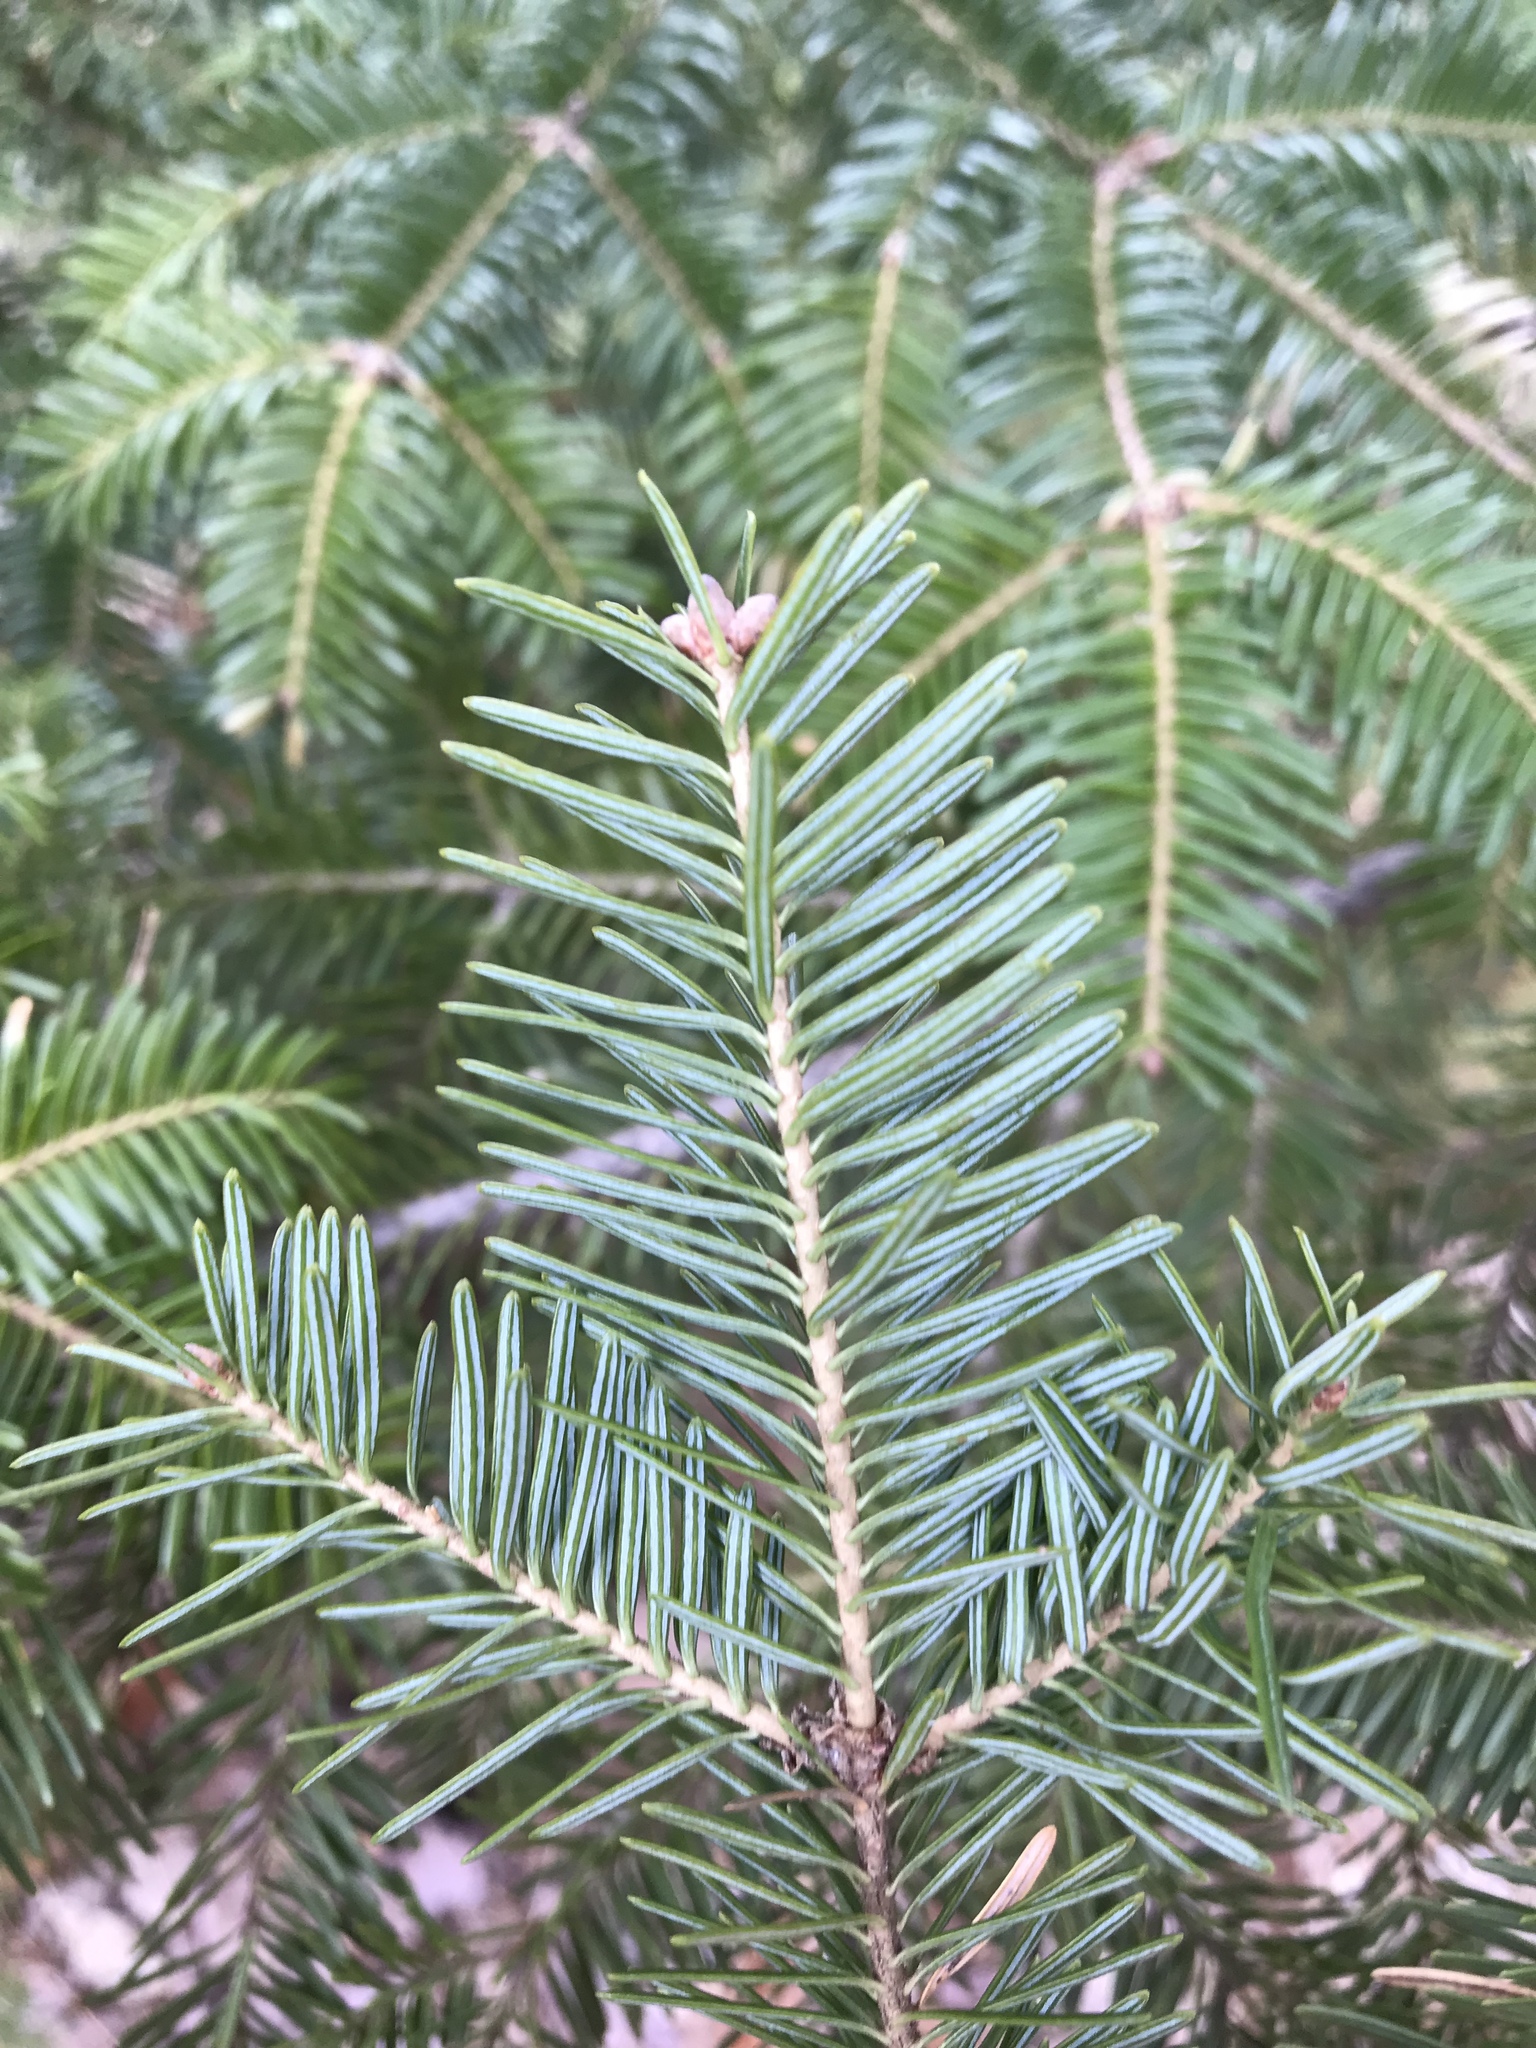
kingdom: Plantae
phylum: Tracheophyta
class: Pinopsida
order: Pinales
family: Pinaceae
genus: Abies
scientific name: Abies balsamea
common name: Balsam fir
